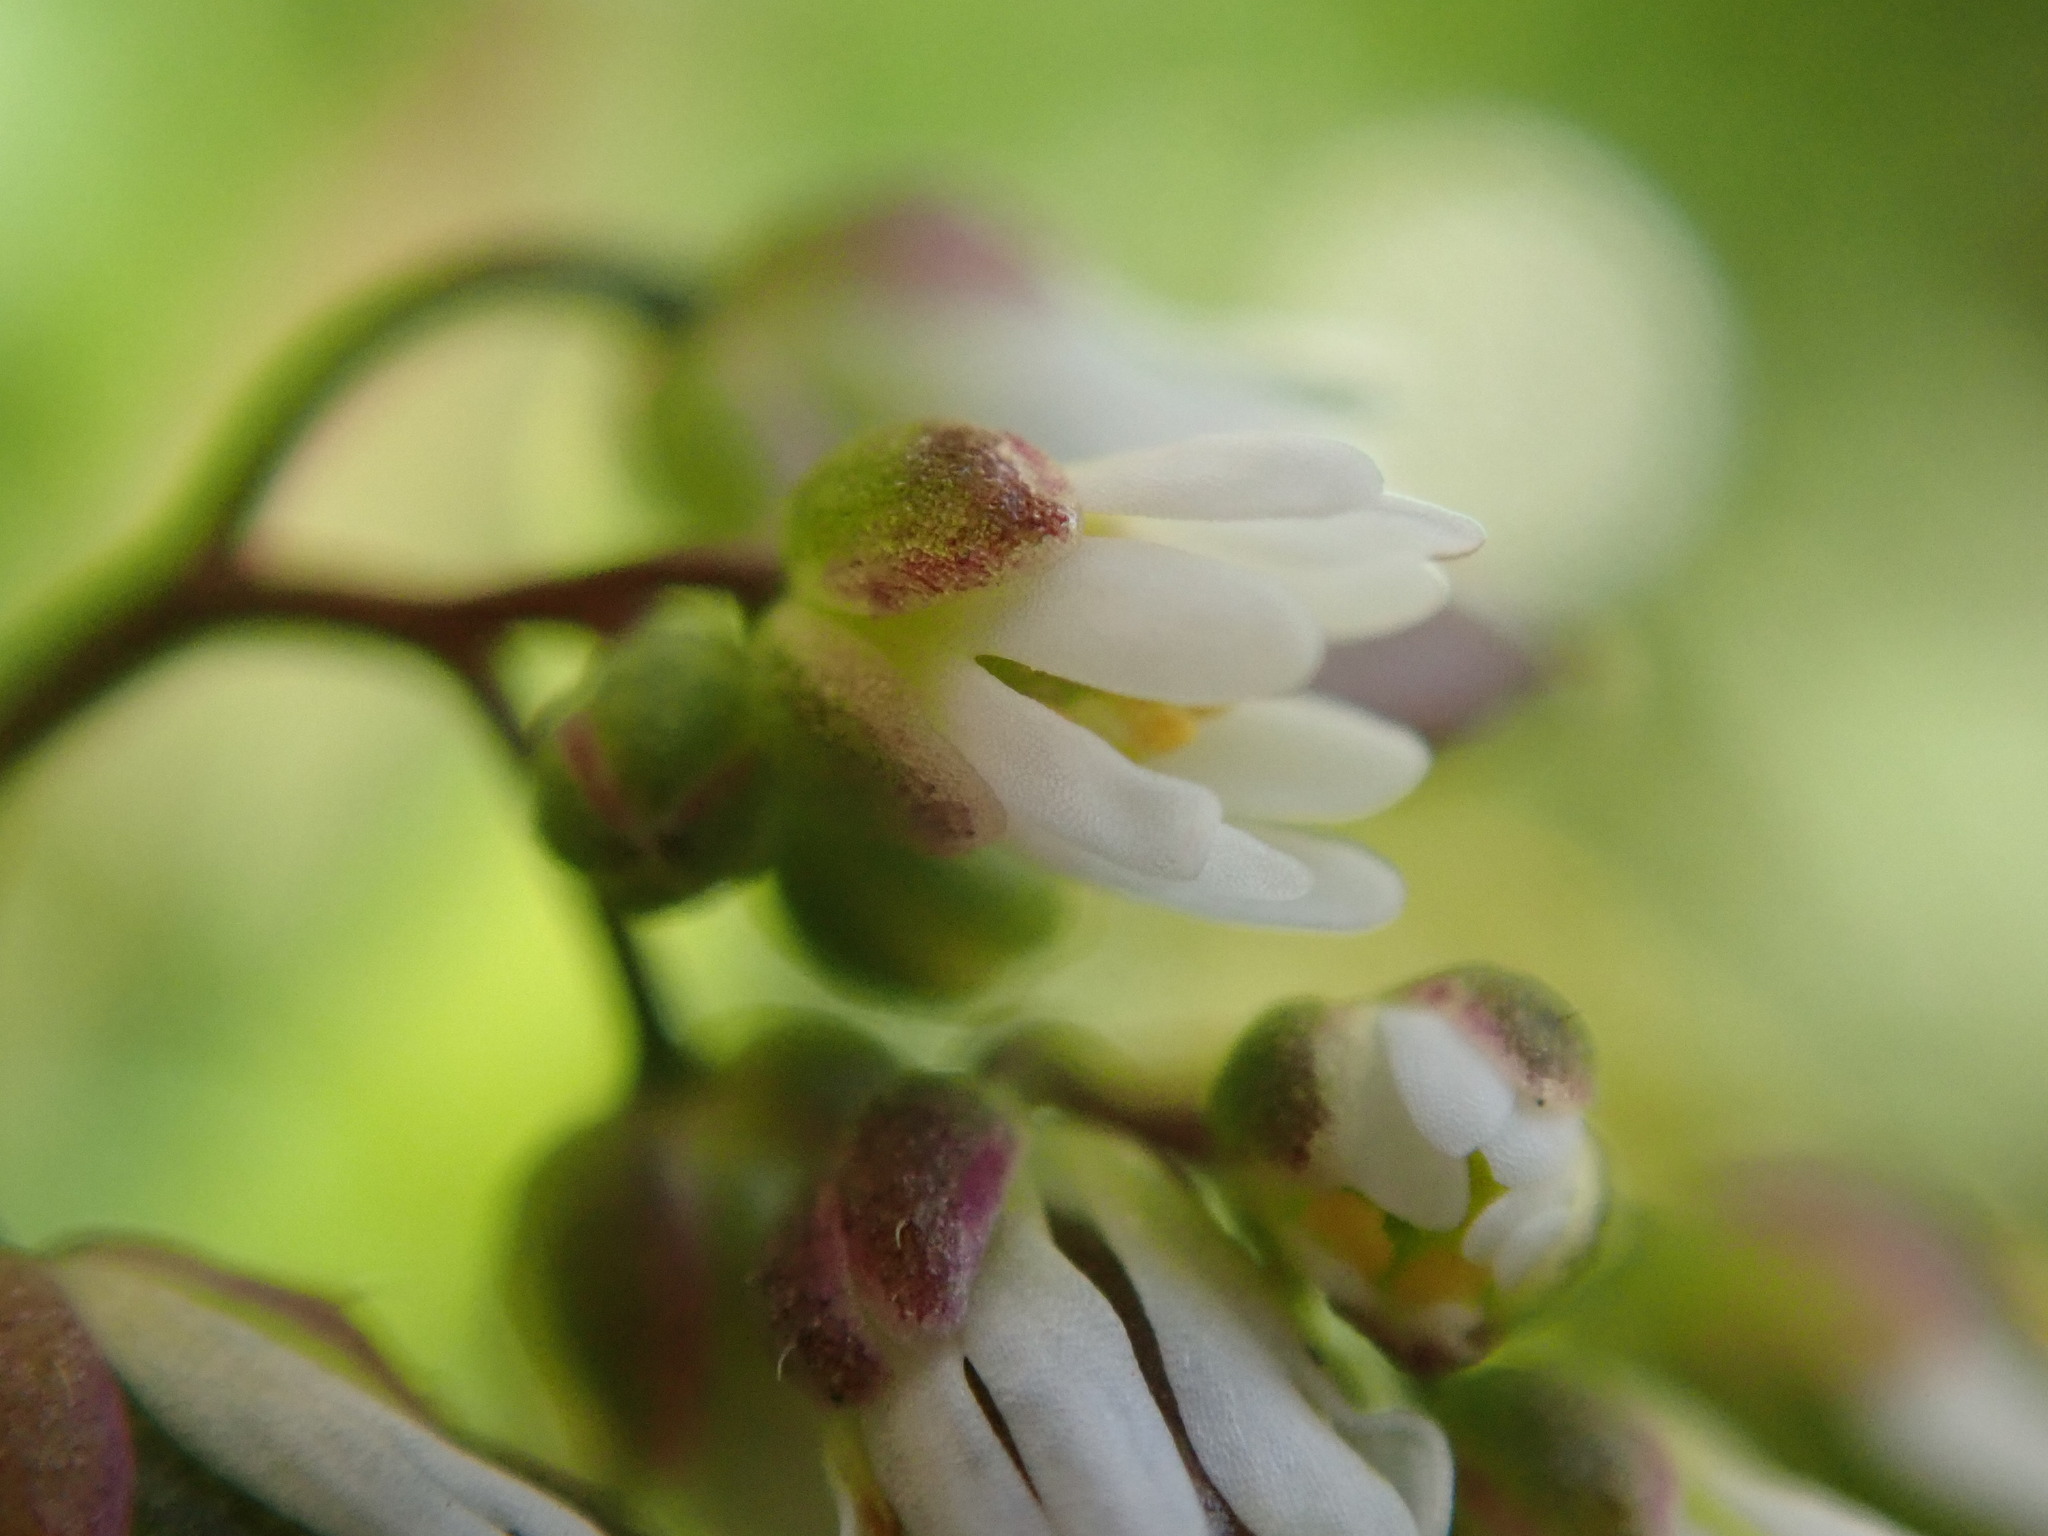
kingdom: Plantae
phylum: Tracheophyta
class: Magnoliopsida
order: Brassicales
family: Brassicaceae
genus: Draba
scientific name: Draba verna
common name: Spring draba
